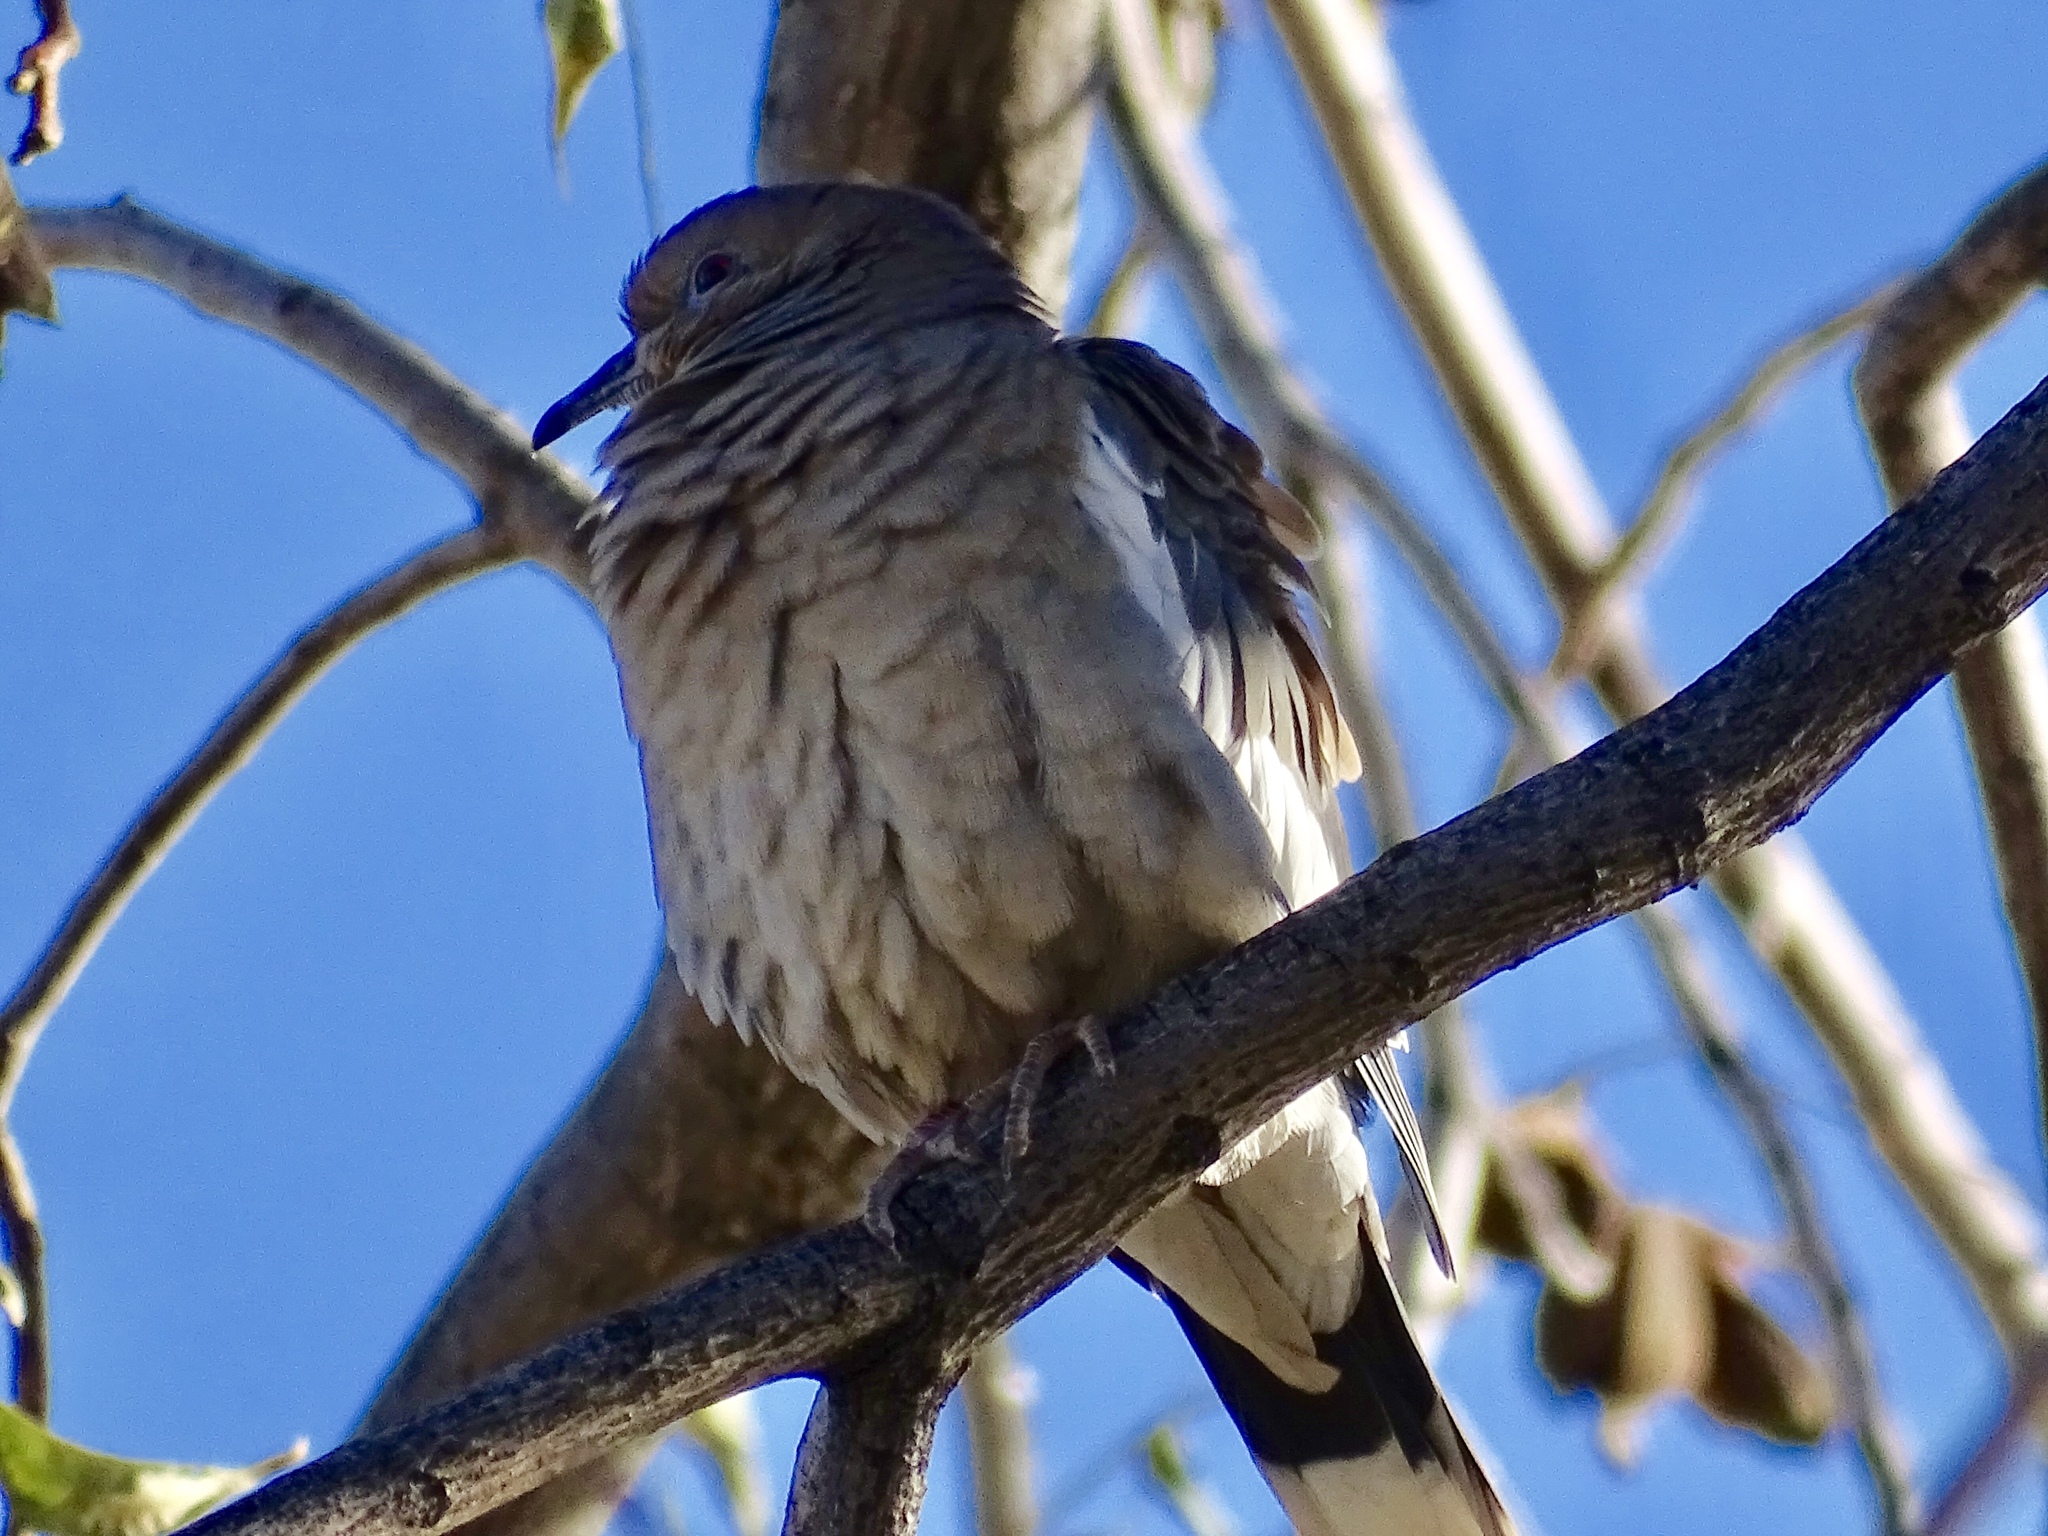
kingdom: Animalia
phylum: Chordata
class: Aves
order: Columbiformes
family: Columbidae
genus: Zenaida
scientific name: Zenaida asiatica
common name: White-winged dove
